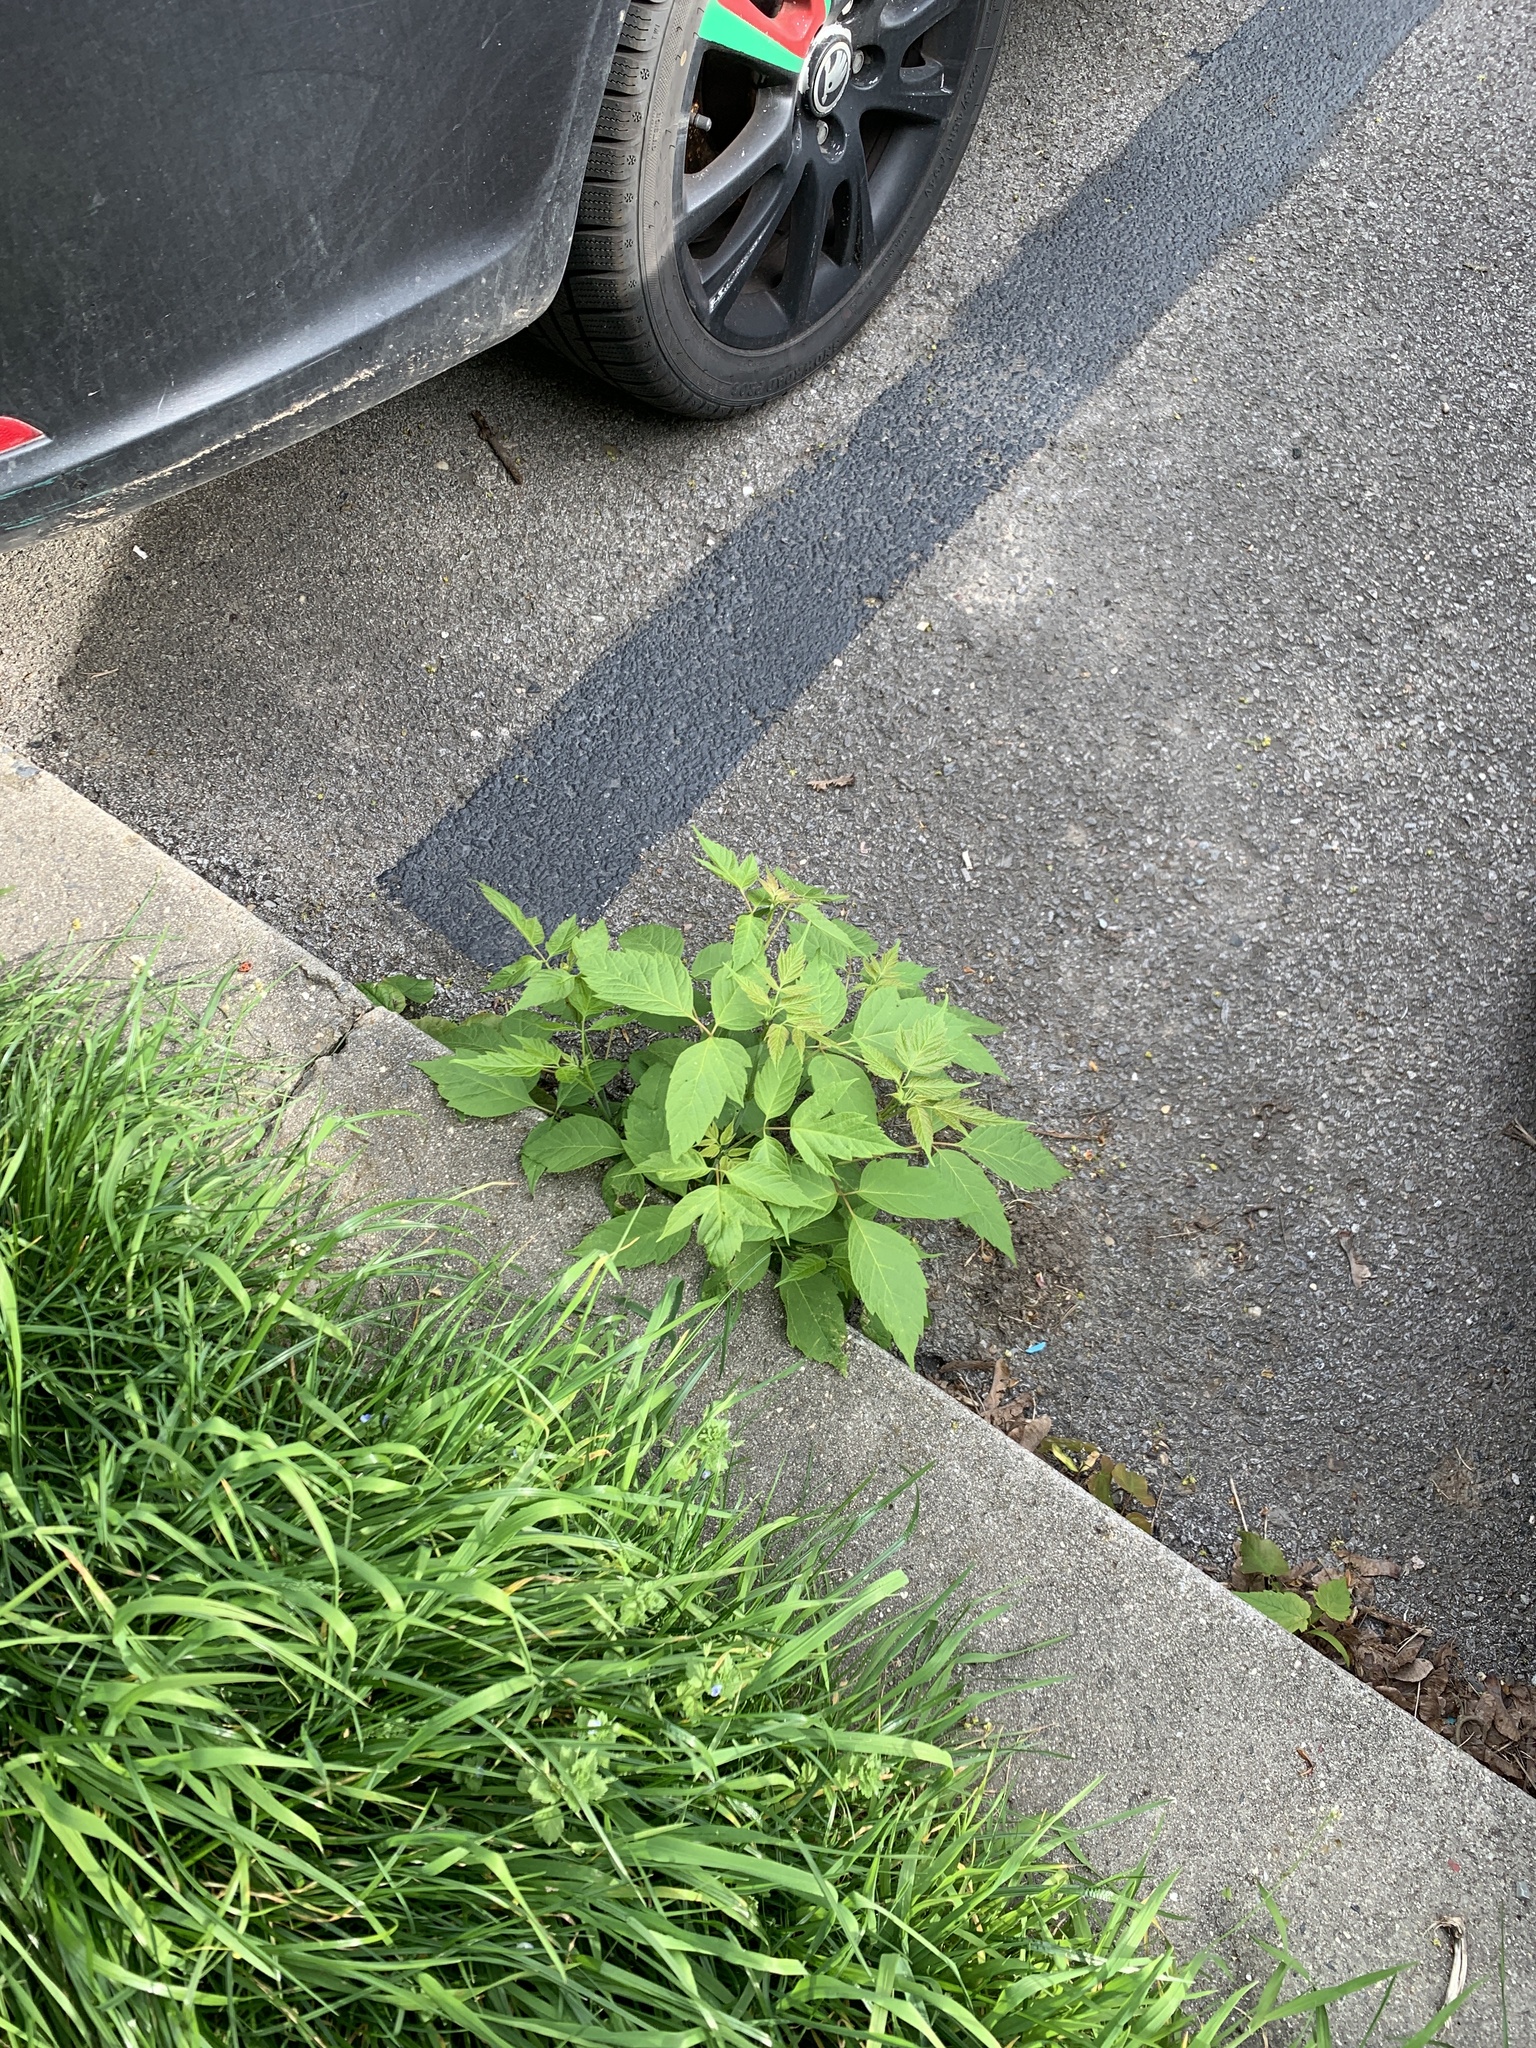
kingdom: Plantae
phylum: Tracheophyta
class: Magnoliopsida
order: Sapindales
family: Sapindaceae
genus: Acer
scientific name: Acer negundo
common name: Ashleaf maple
